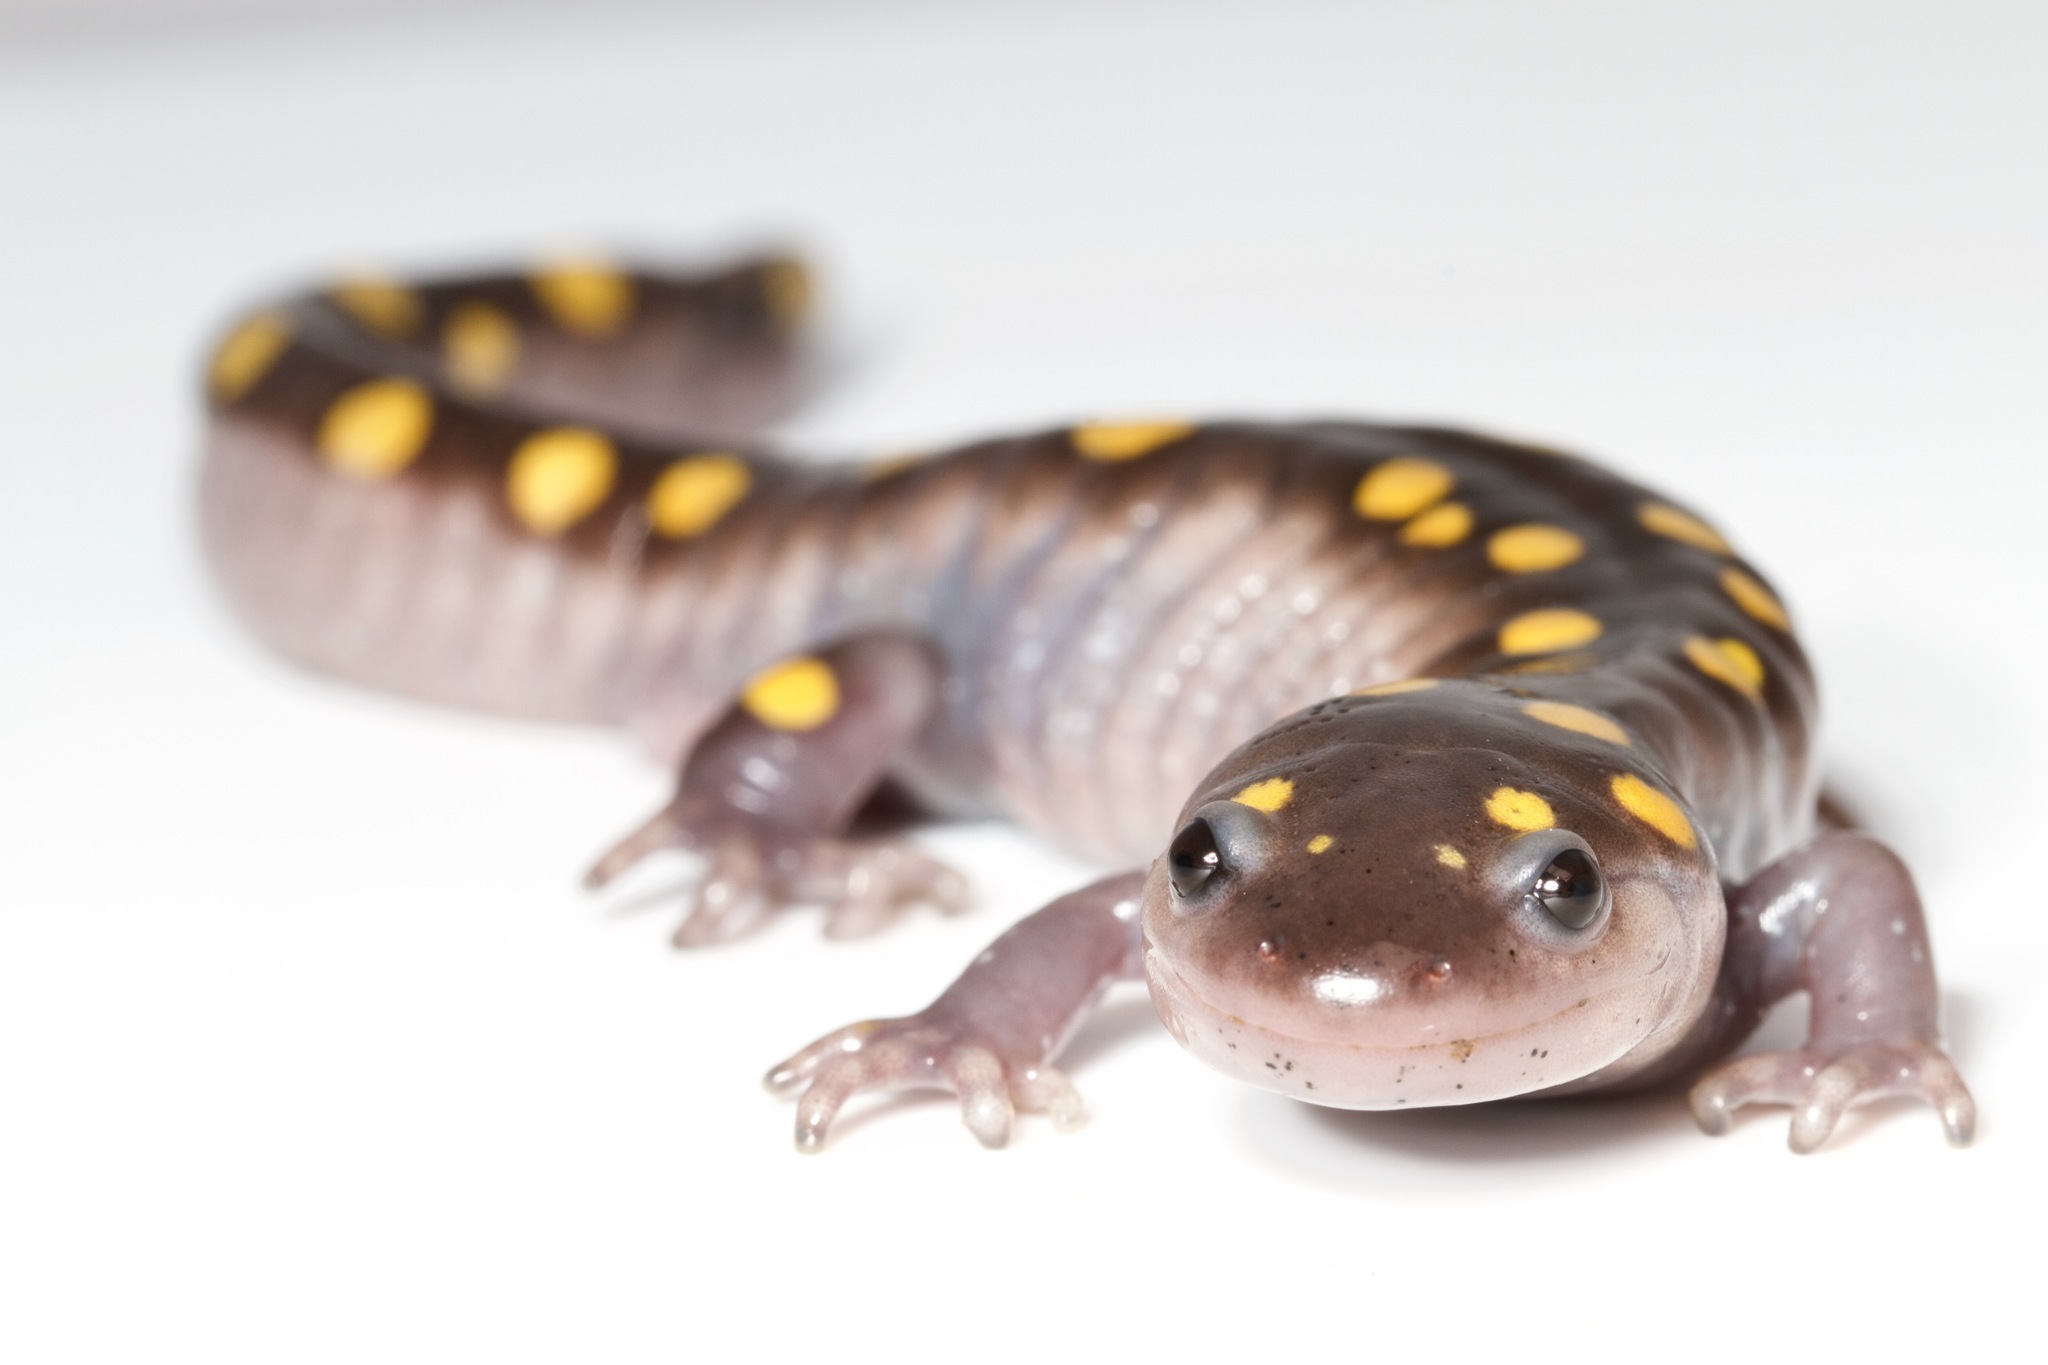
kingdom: Animalia
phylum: Chordata
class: Amphibia
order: Caudata
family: Ambystomatidae
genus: Ambystoma
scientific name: Ambystoma maculatum
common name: Spotted salamander
